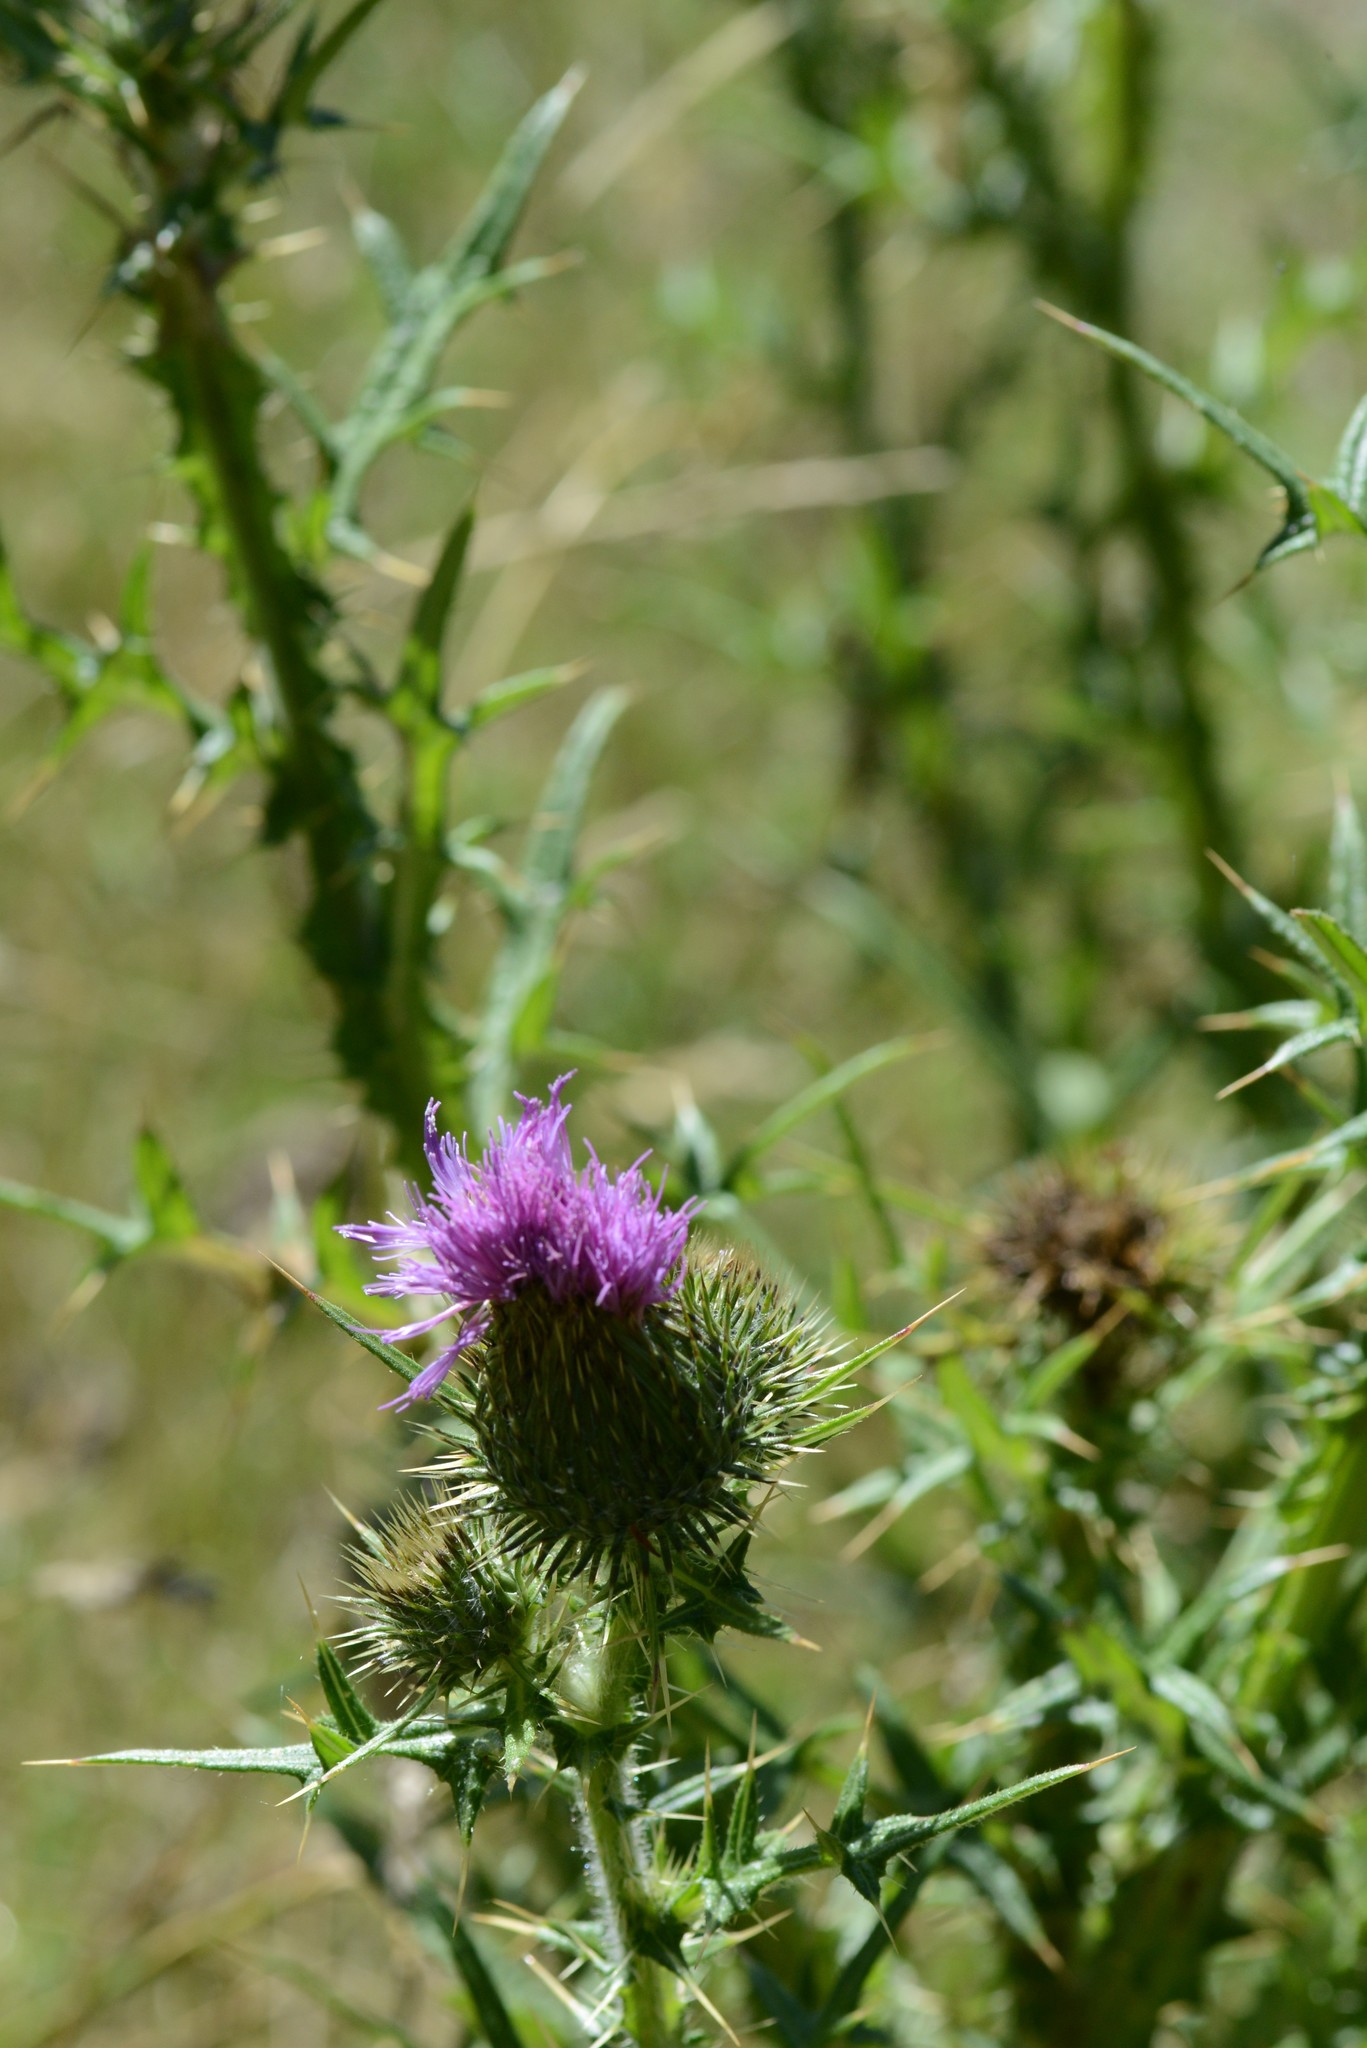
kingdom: Plantae
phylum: Tracheophyta
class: Magnoliopsida
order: Asterales
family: Asteraceae
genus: Cirsium
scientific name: Cirsium vulgare
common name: Bull thistle
